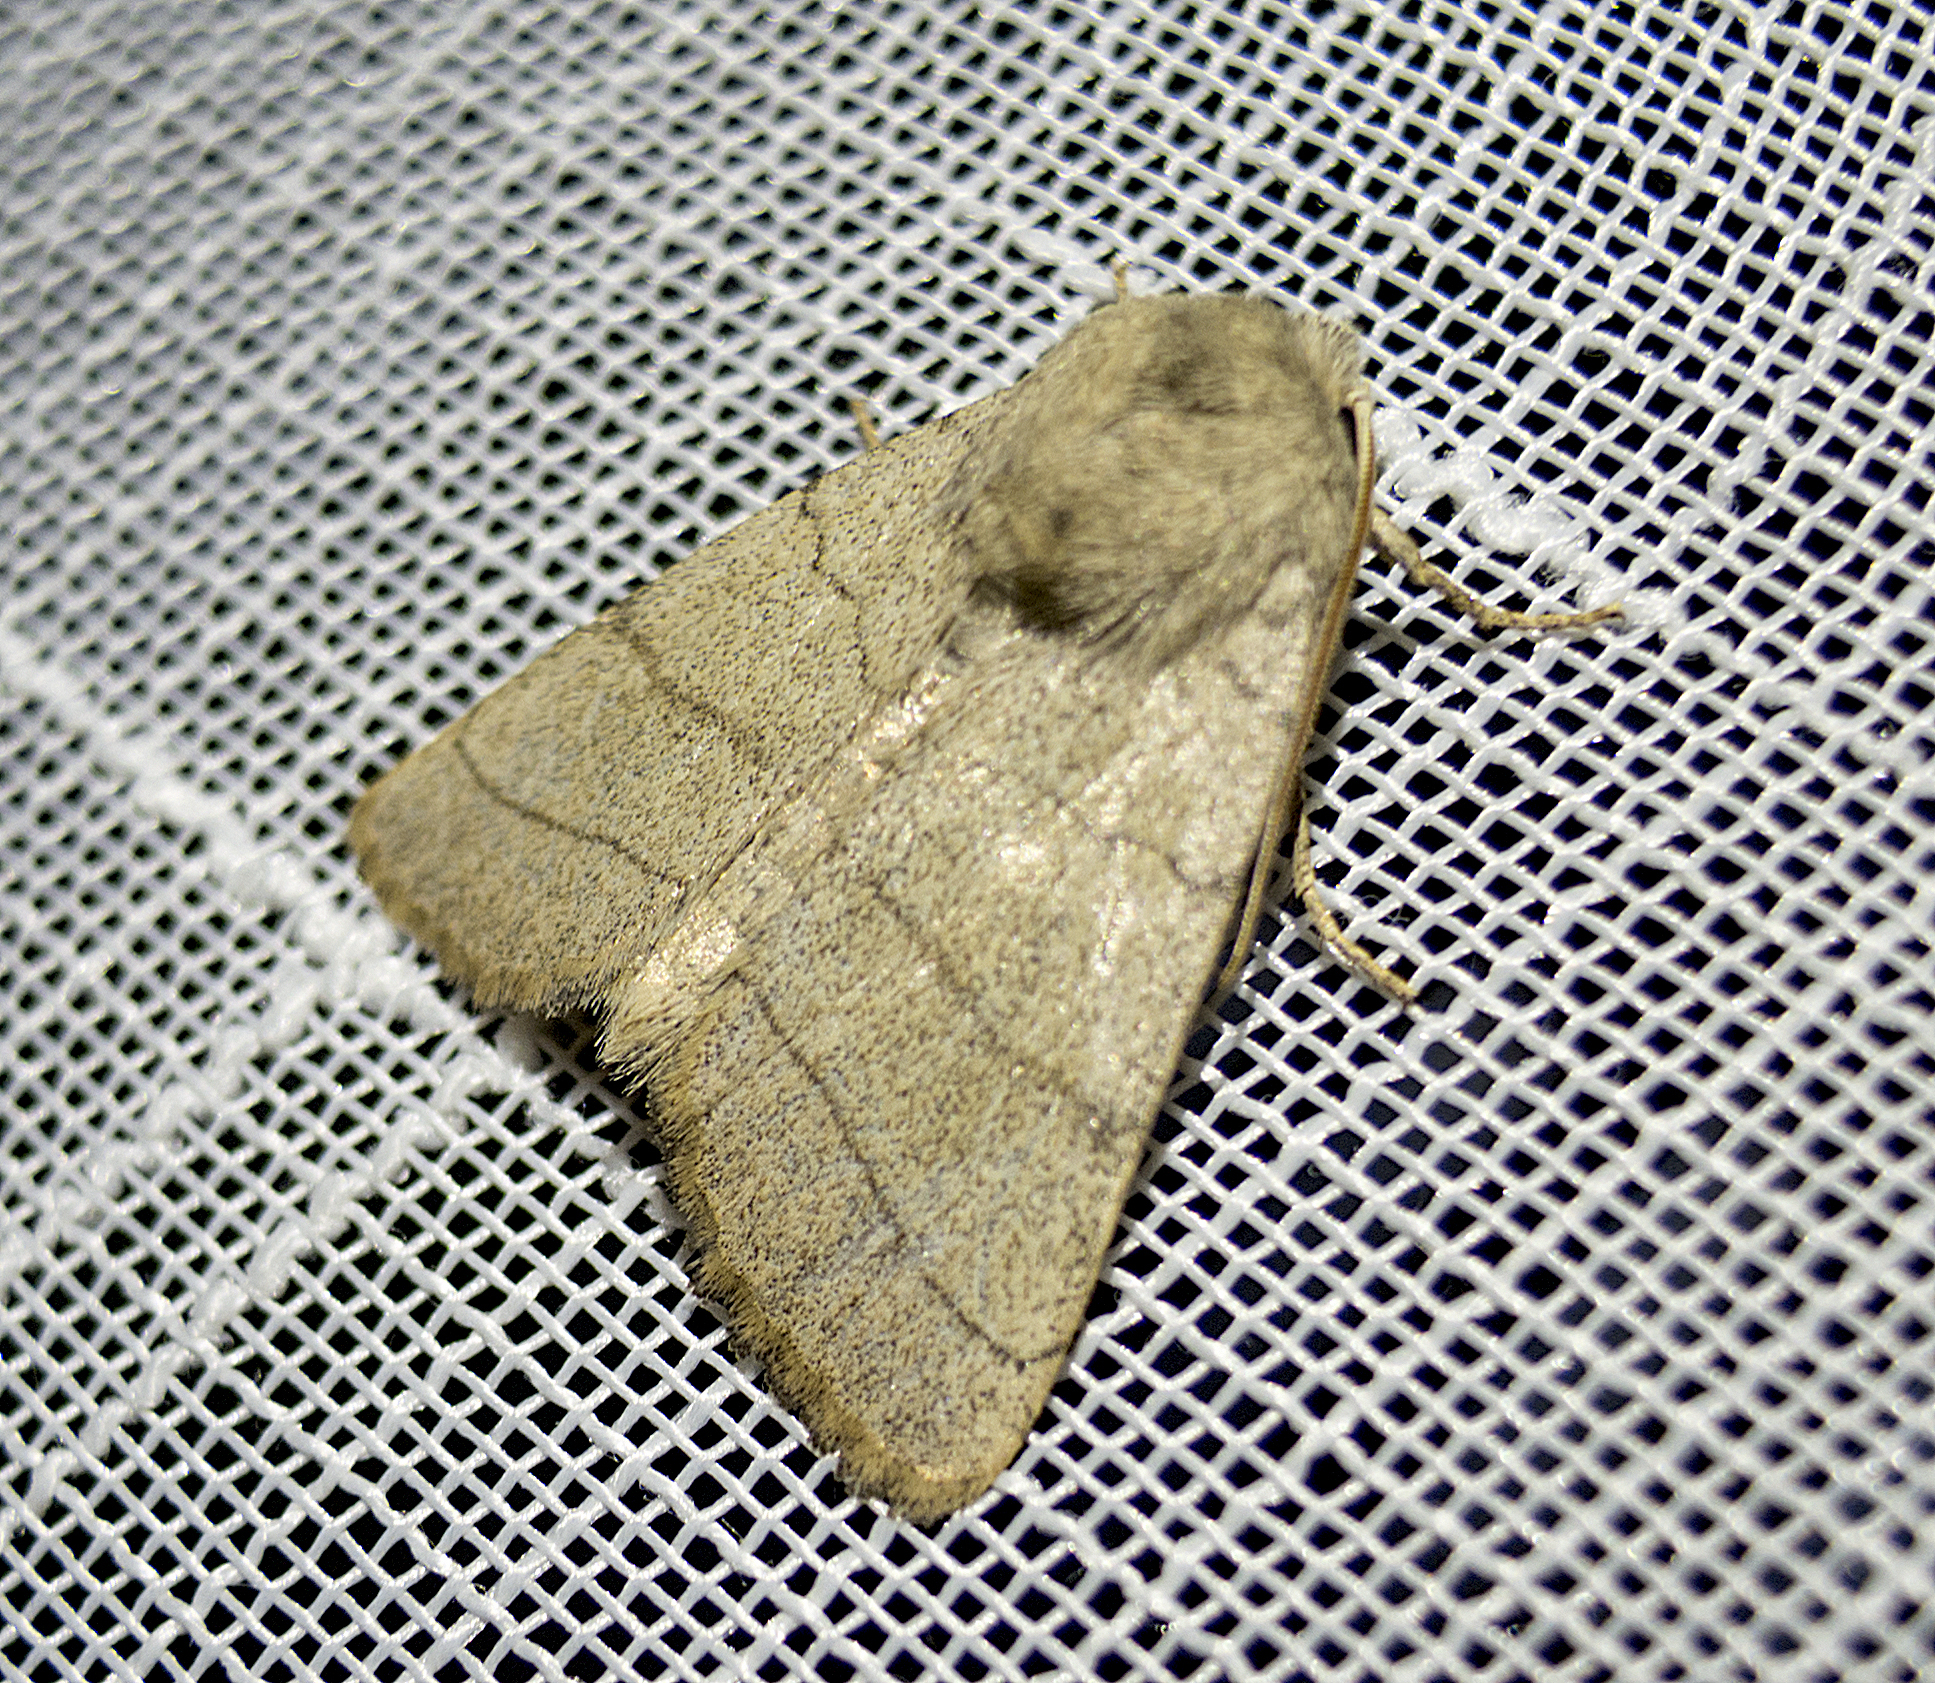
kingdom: Animalia
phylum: Arthropoda
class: Insecta
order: Lepidoptera
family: Noctuidae
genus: Charanyca
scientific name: Charanyca trigrammica
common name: Treble lines
